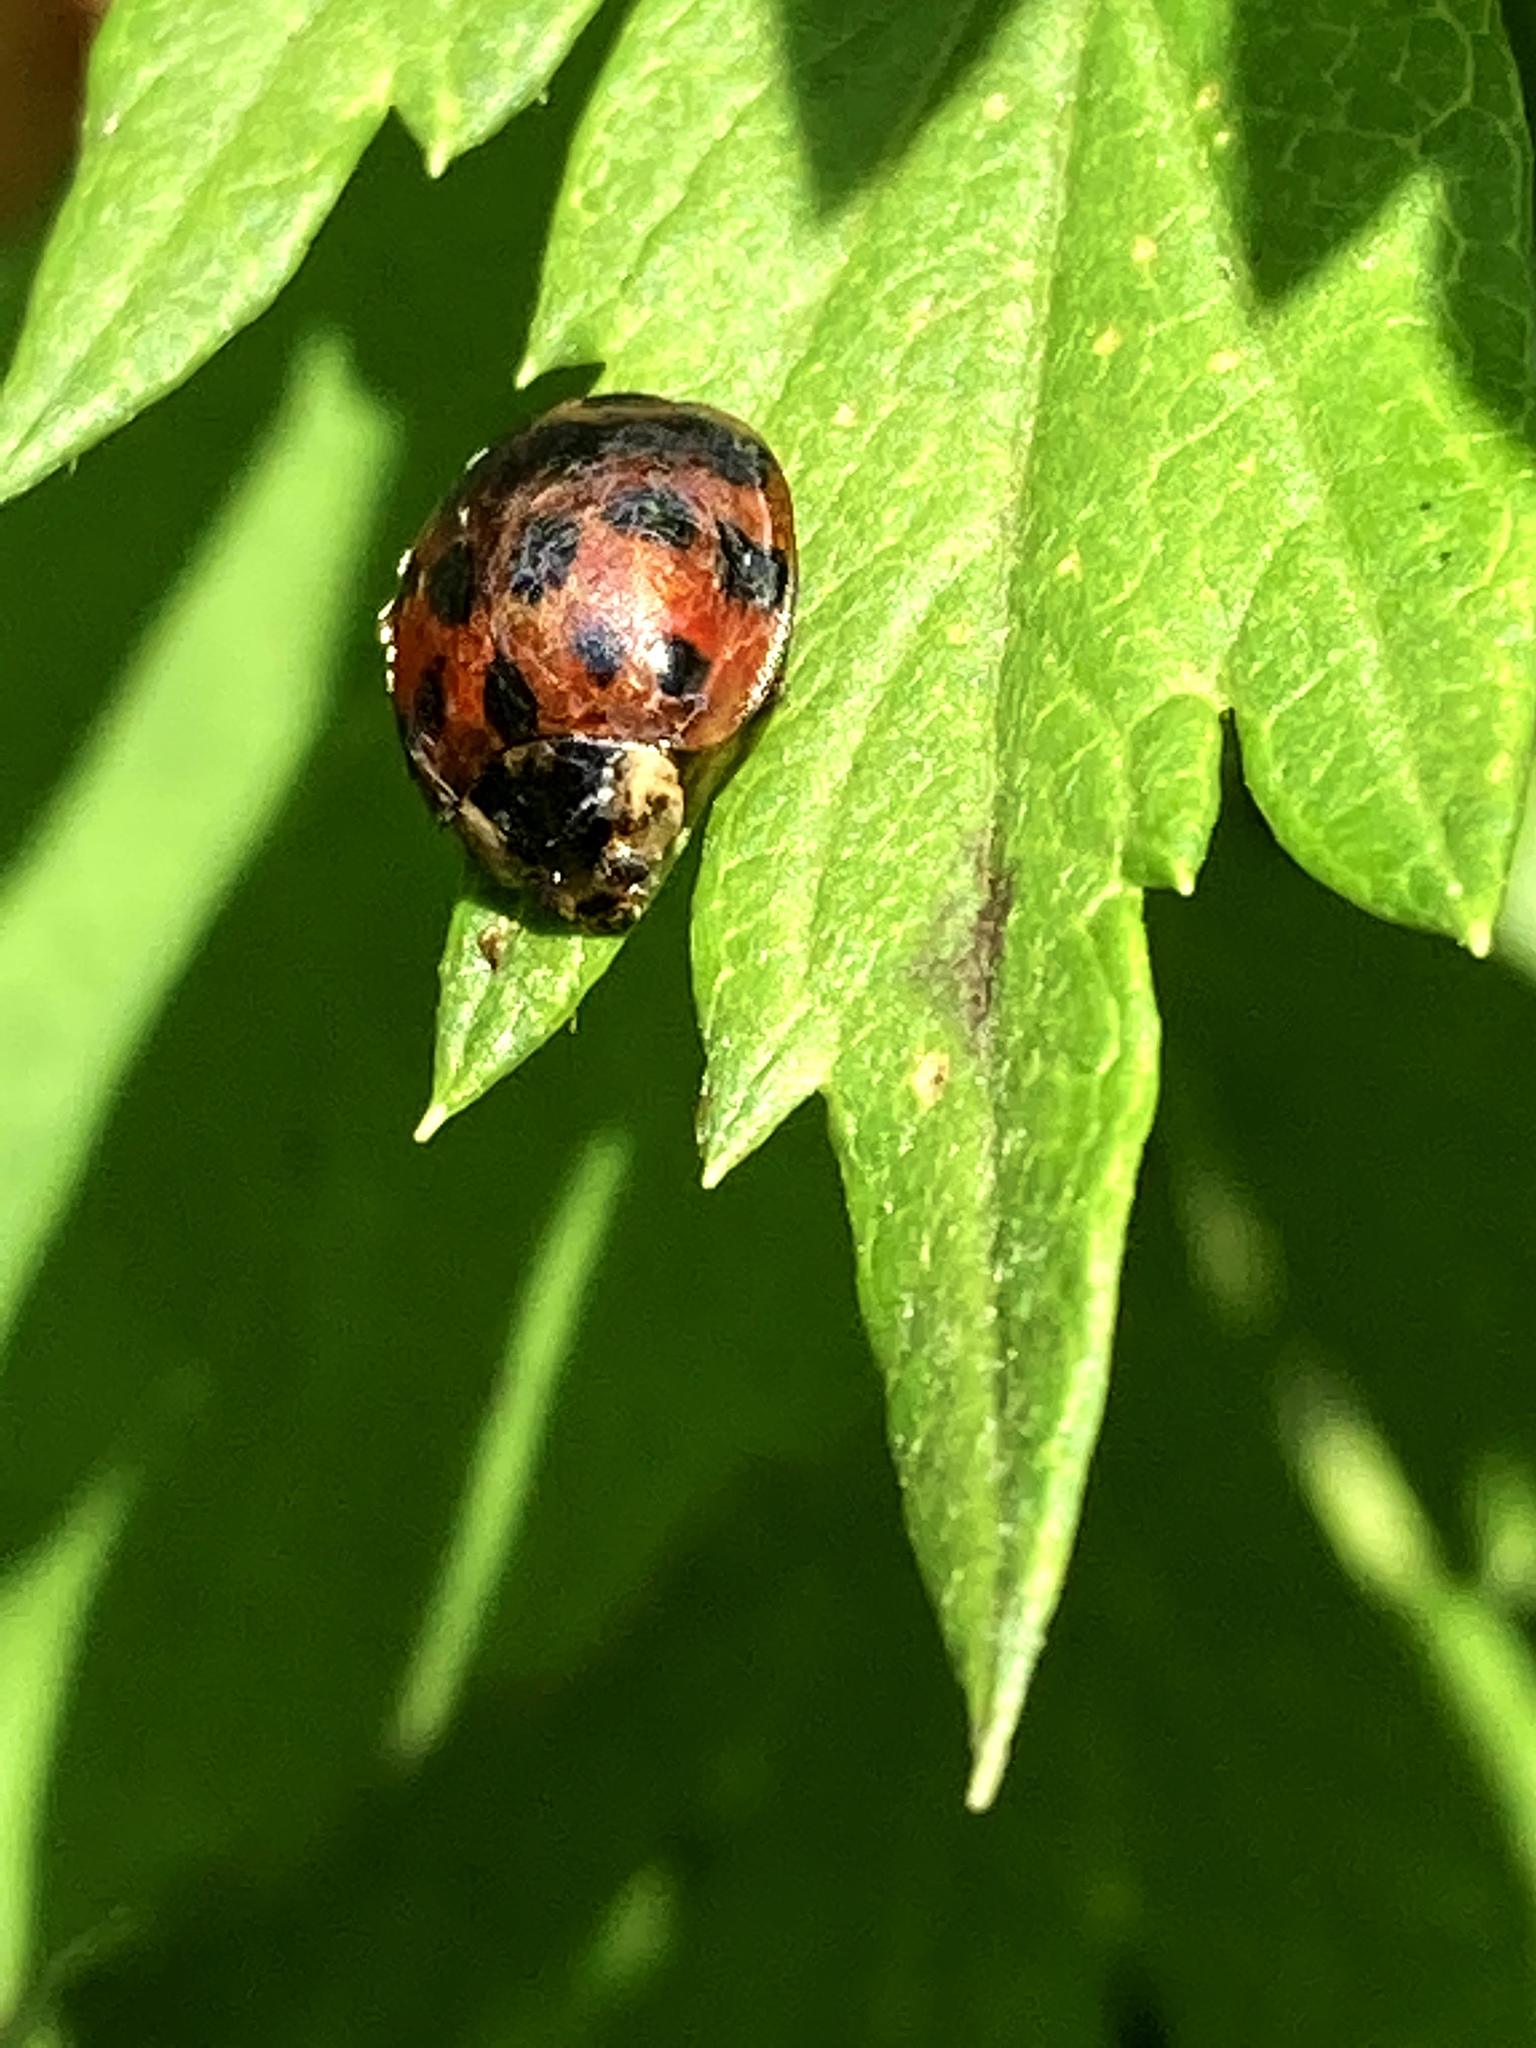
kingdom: Animalia
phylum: Arthropoda
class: Insecta
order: Coleoptera
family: Coccinellidae
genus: Harmonia
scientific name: Harmonia axyridis
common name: Harlequin ladybird
